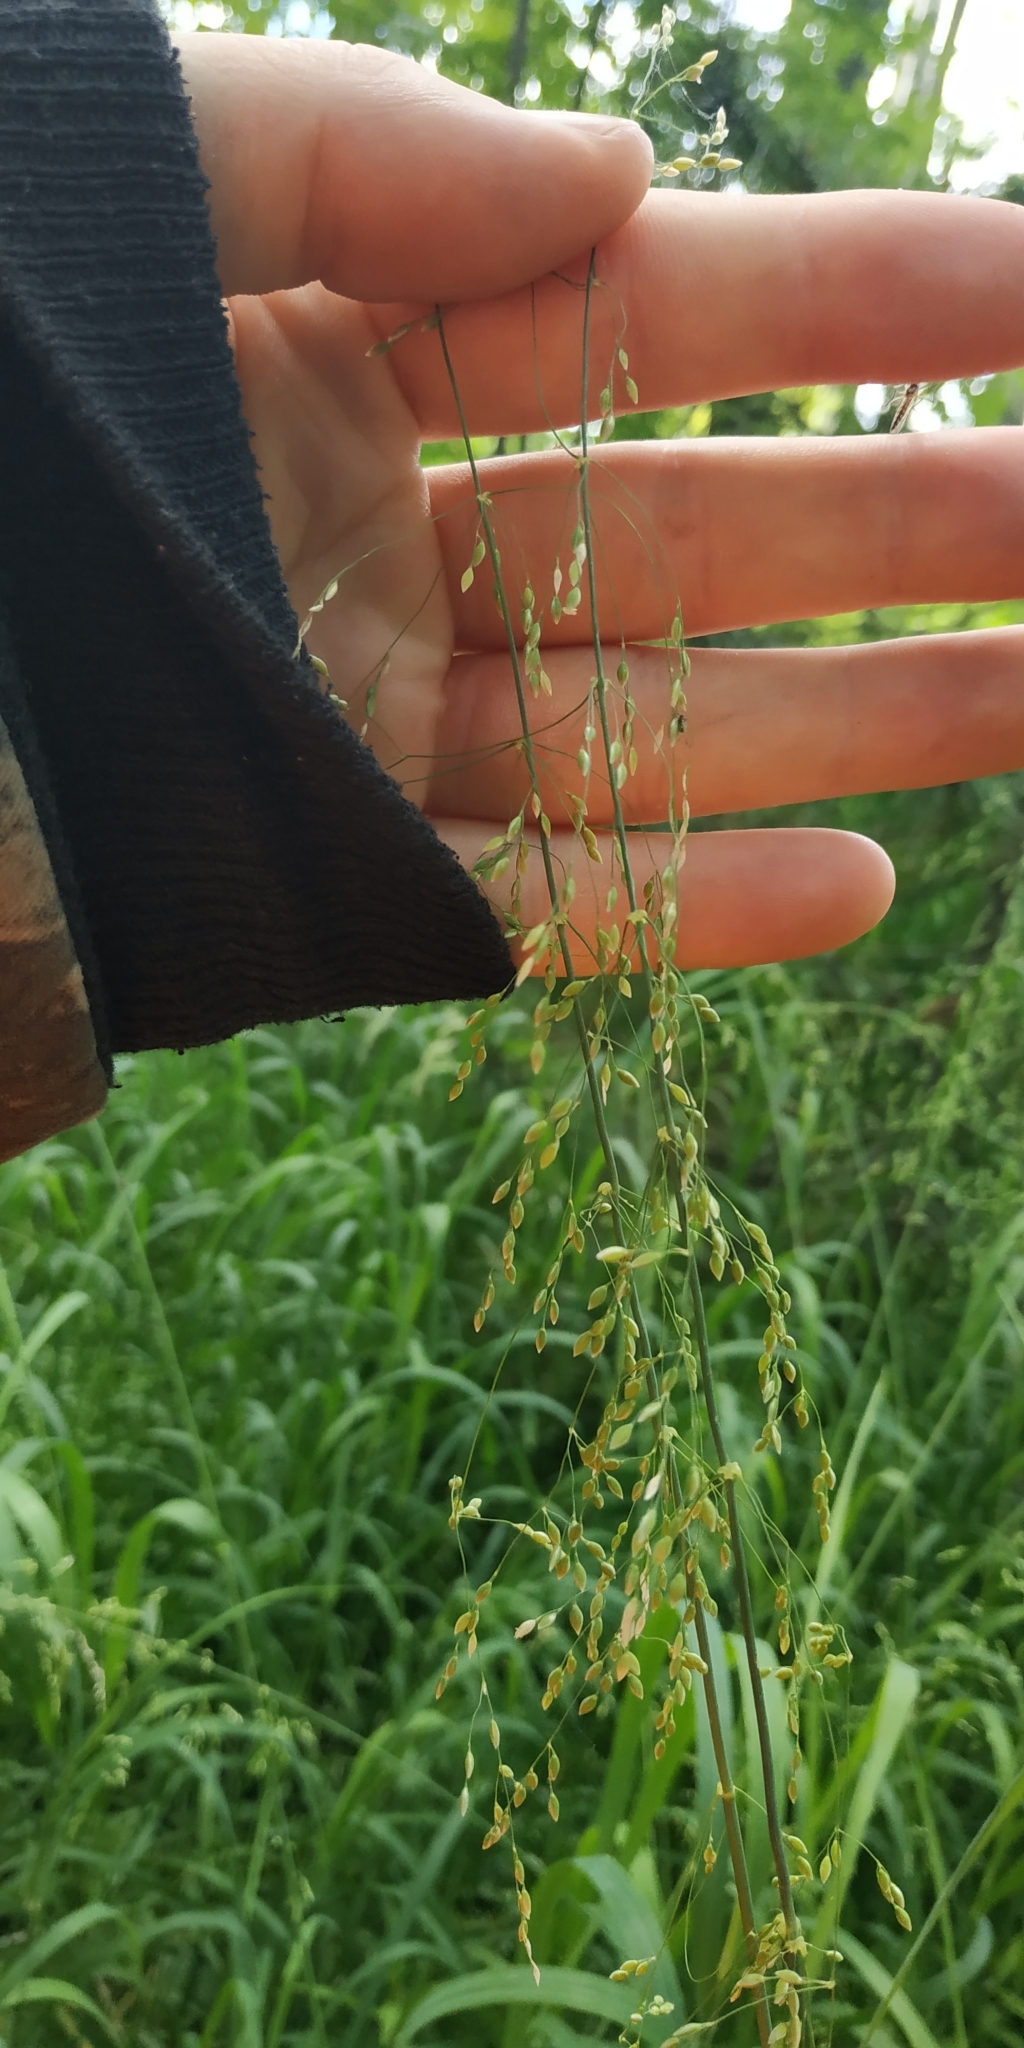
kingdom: Plantae
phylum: Tracheophyta
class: Liliopsida
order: Poales
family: Poaceae
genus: Milium
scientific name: Milium effusum
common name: Wood millet
